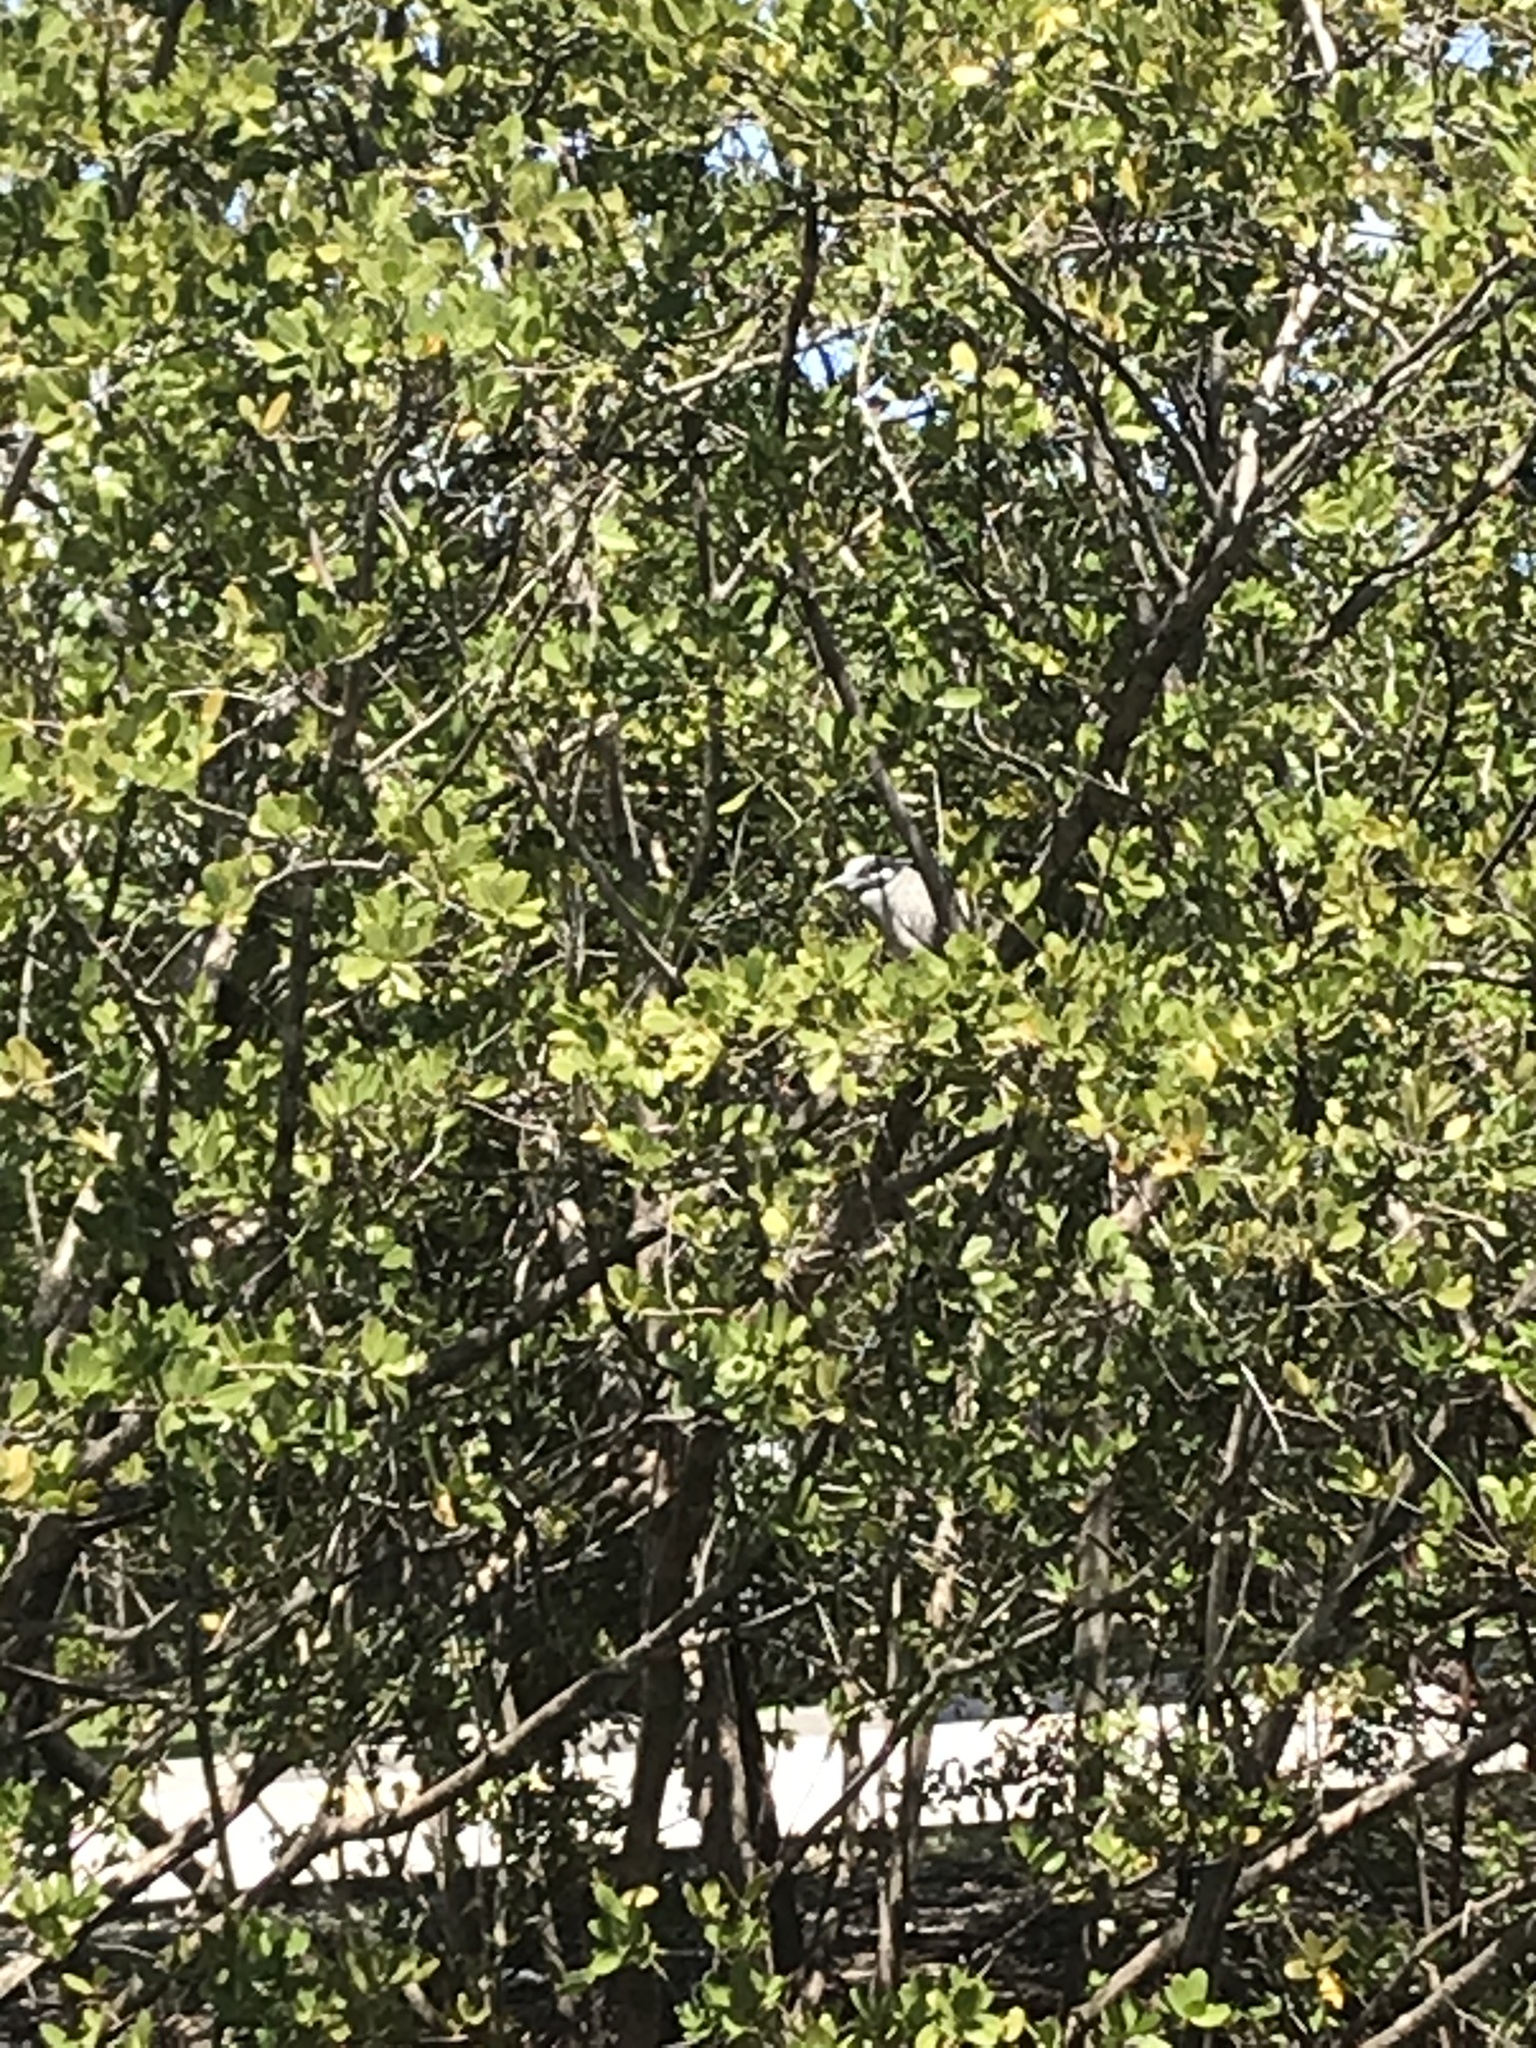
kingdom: Animalia
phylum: Chordata
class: Aves
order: Pelecaniformes
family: Ardeidae
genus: Nyctanassa
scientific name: Nyctanassa violacea
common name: Yellow-crowned night heron
